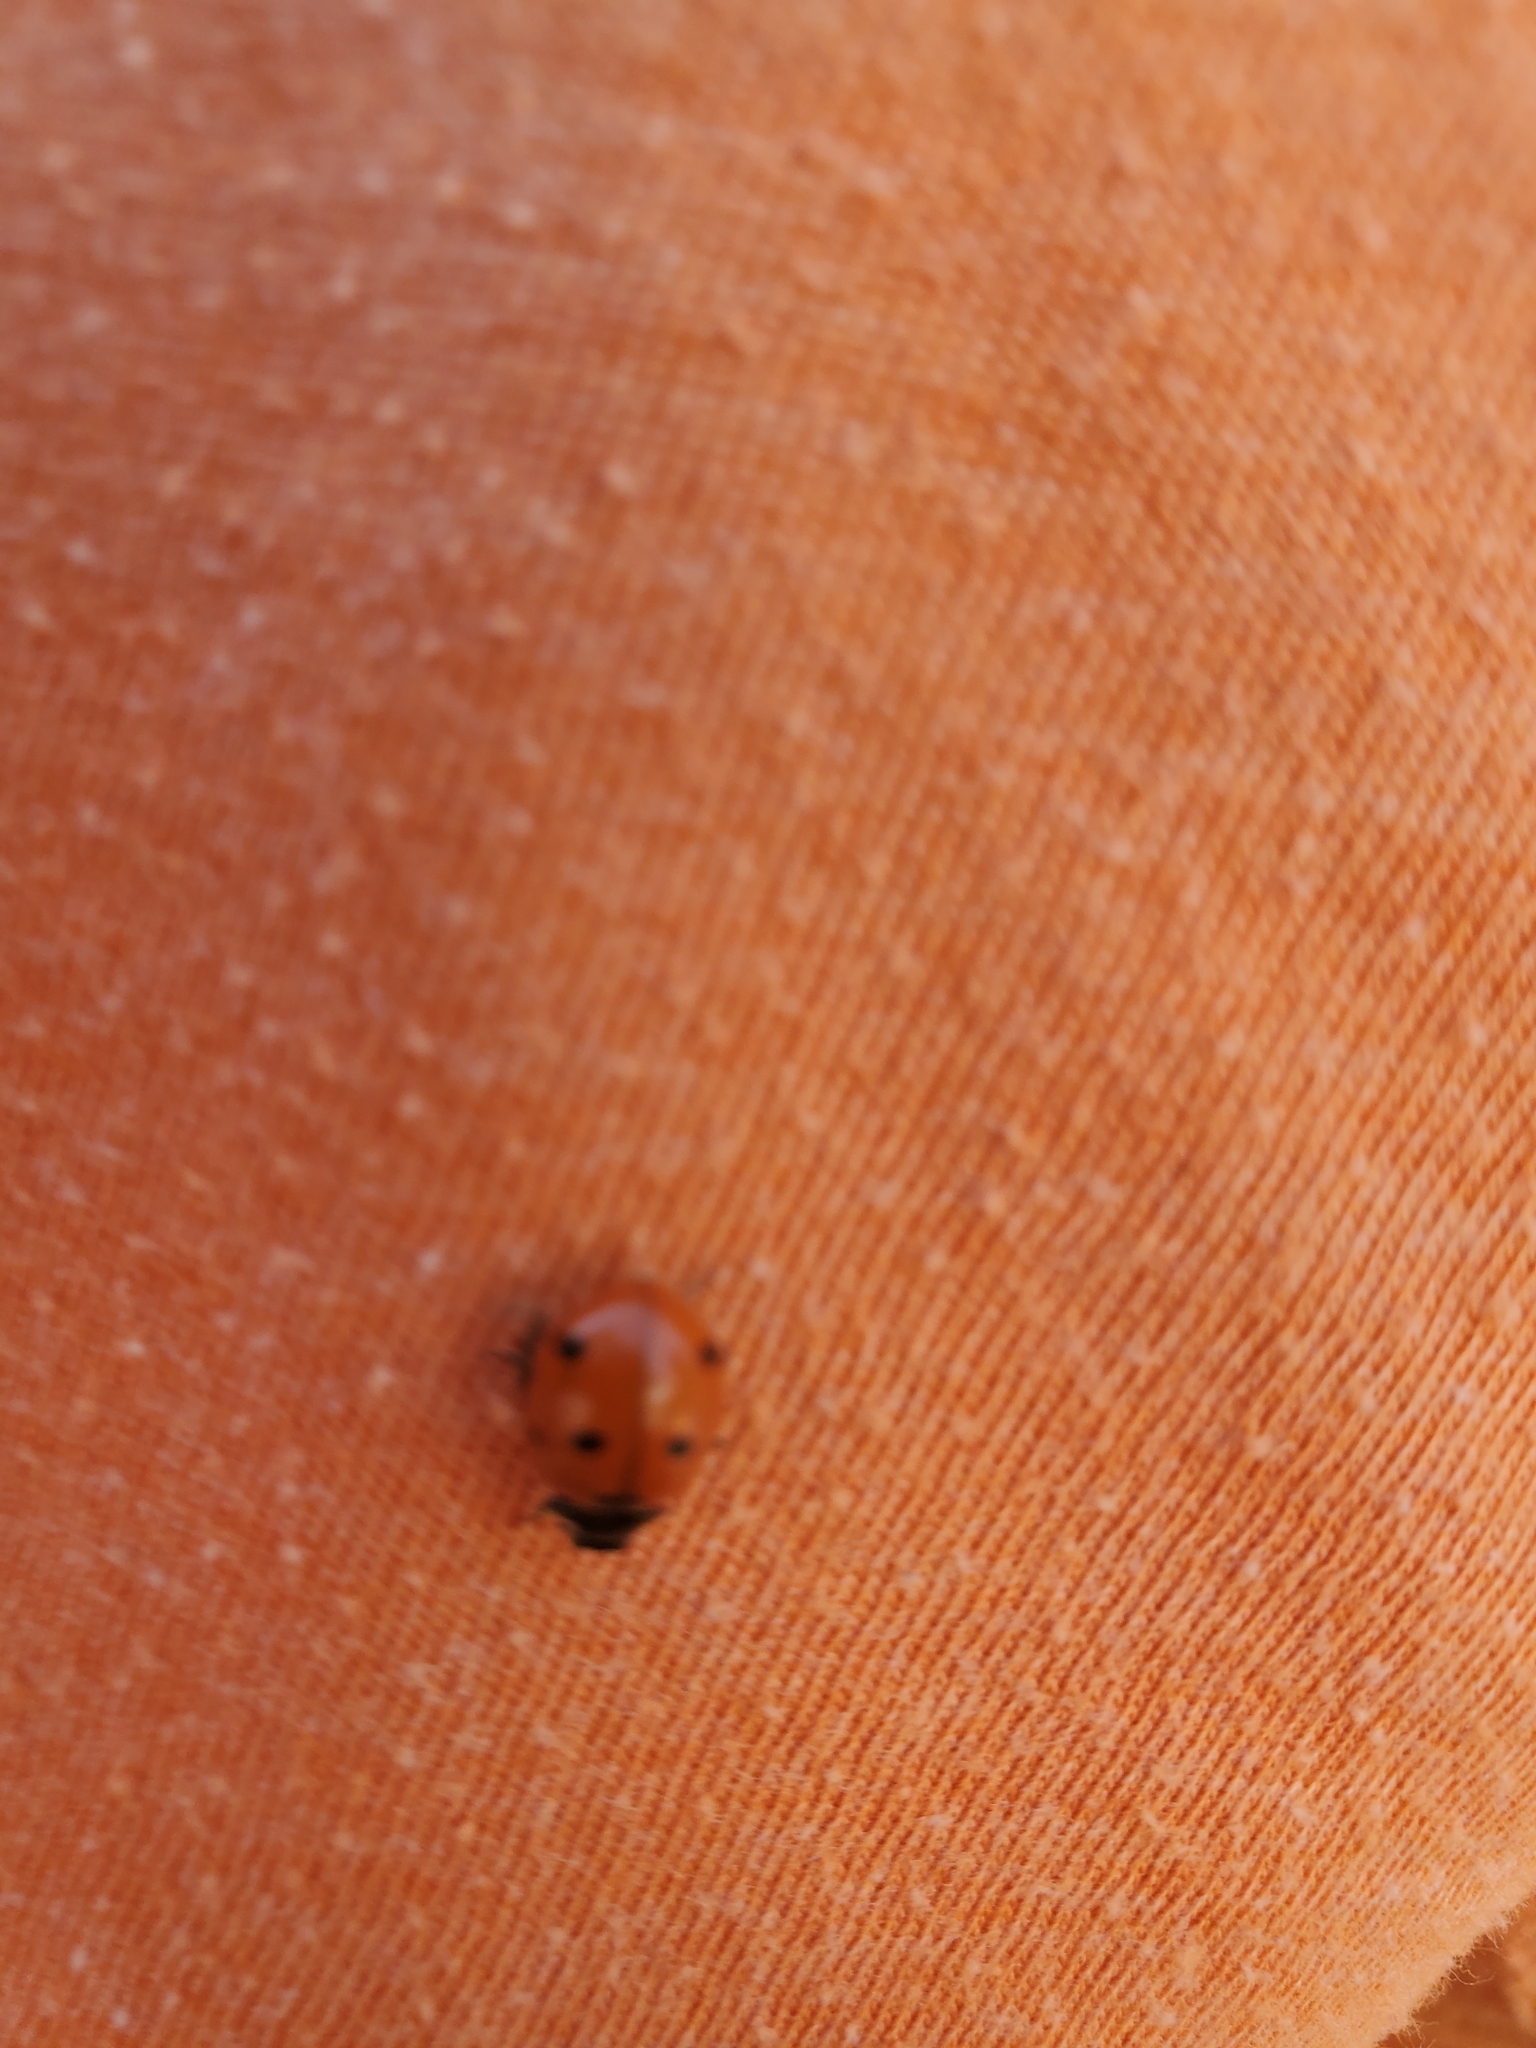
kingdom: Animalia
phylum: Arthropoda
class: Insecta
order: Coleoptera
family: Coccinellidae
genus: Coccinella
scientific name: Coccinella septempunctata
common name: Sevenspotted lady beetle
